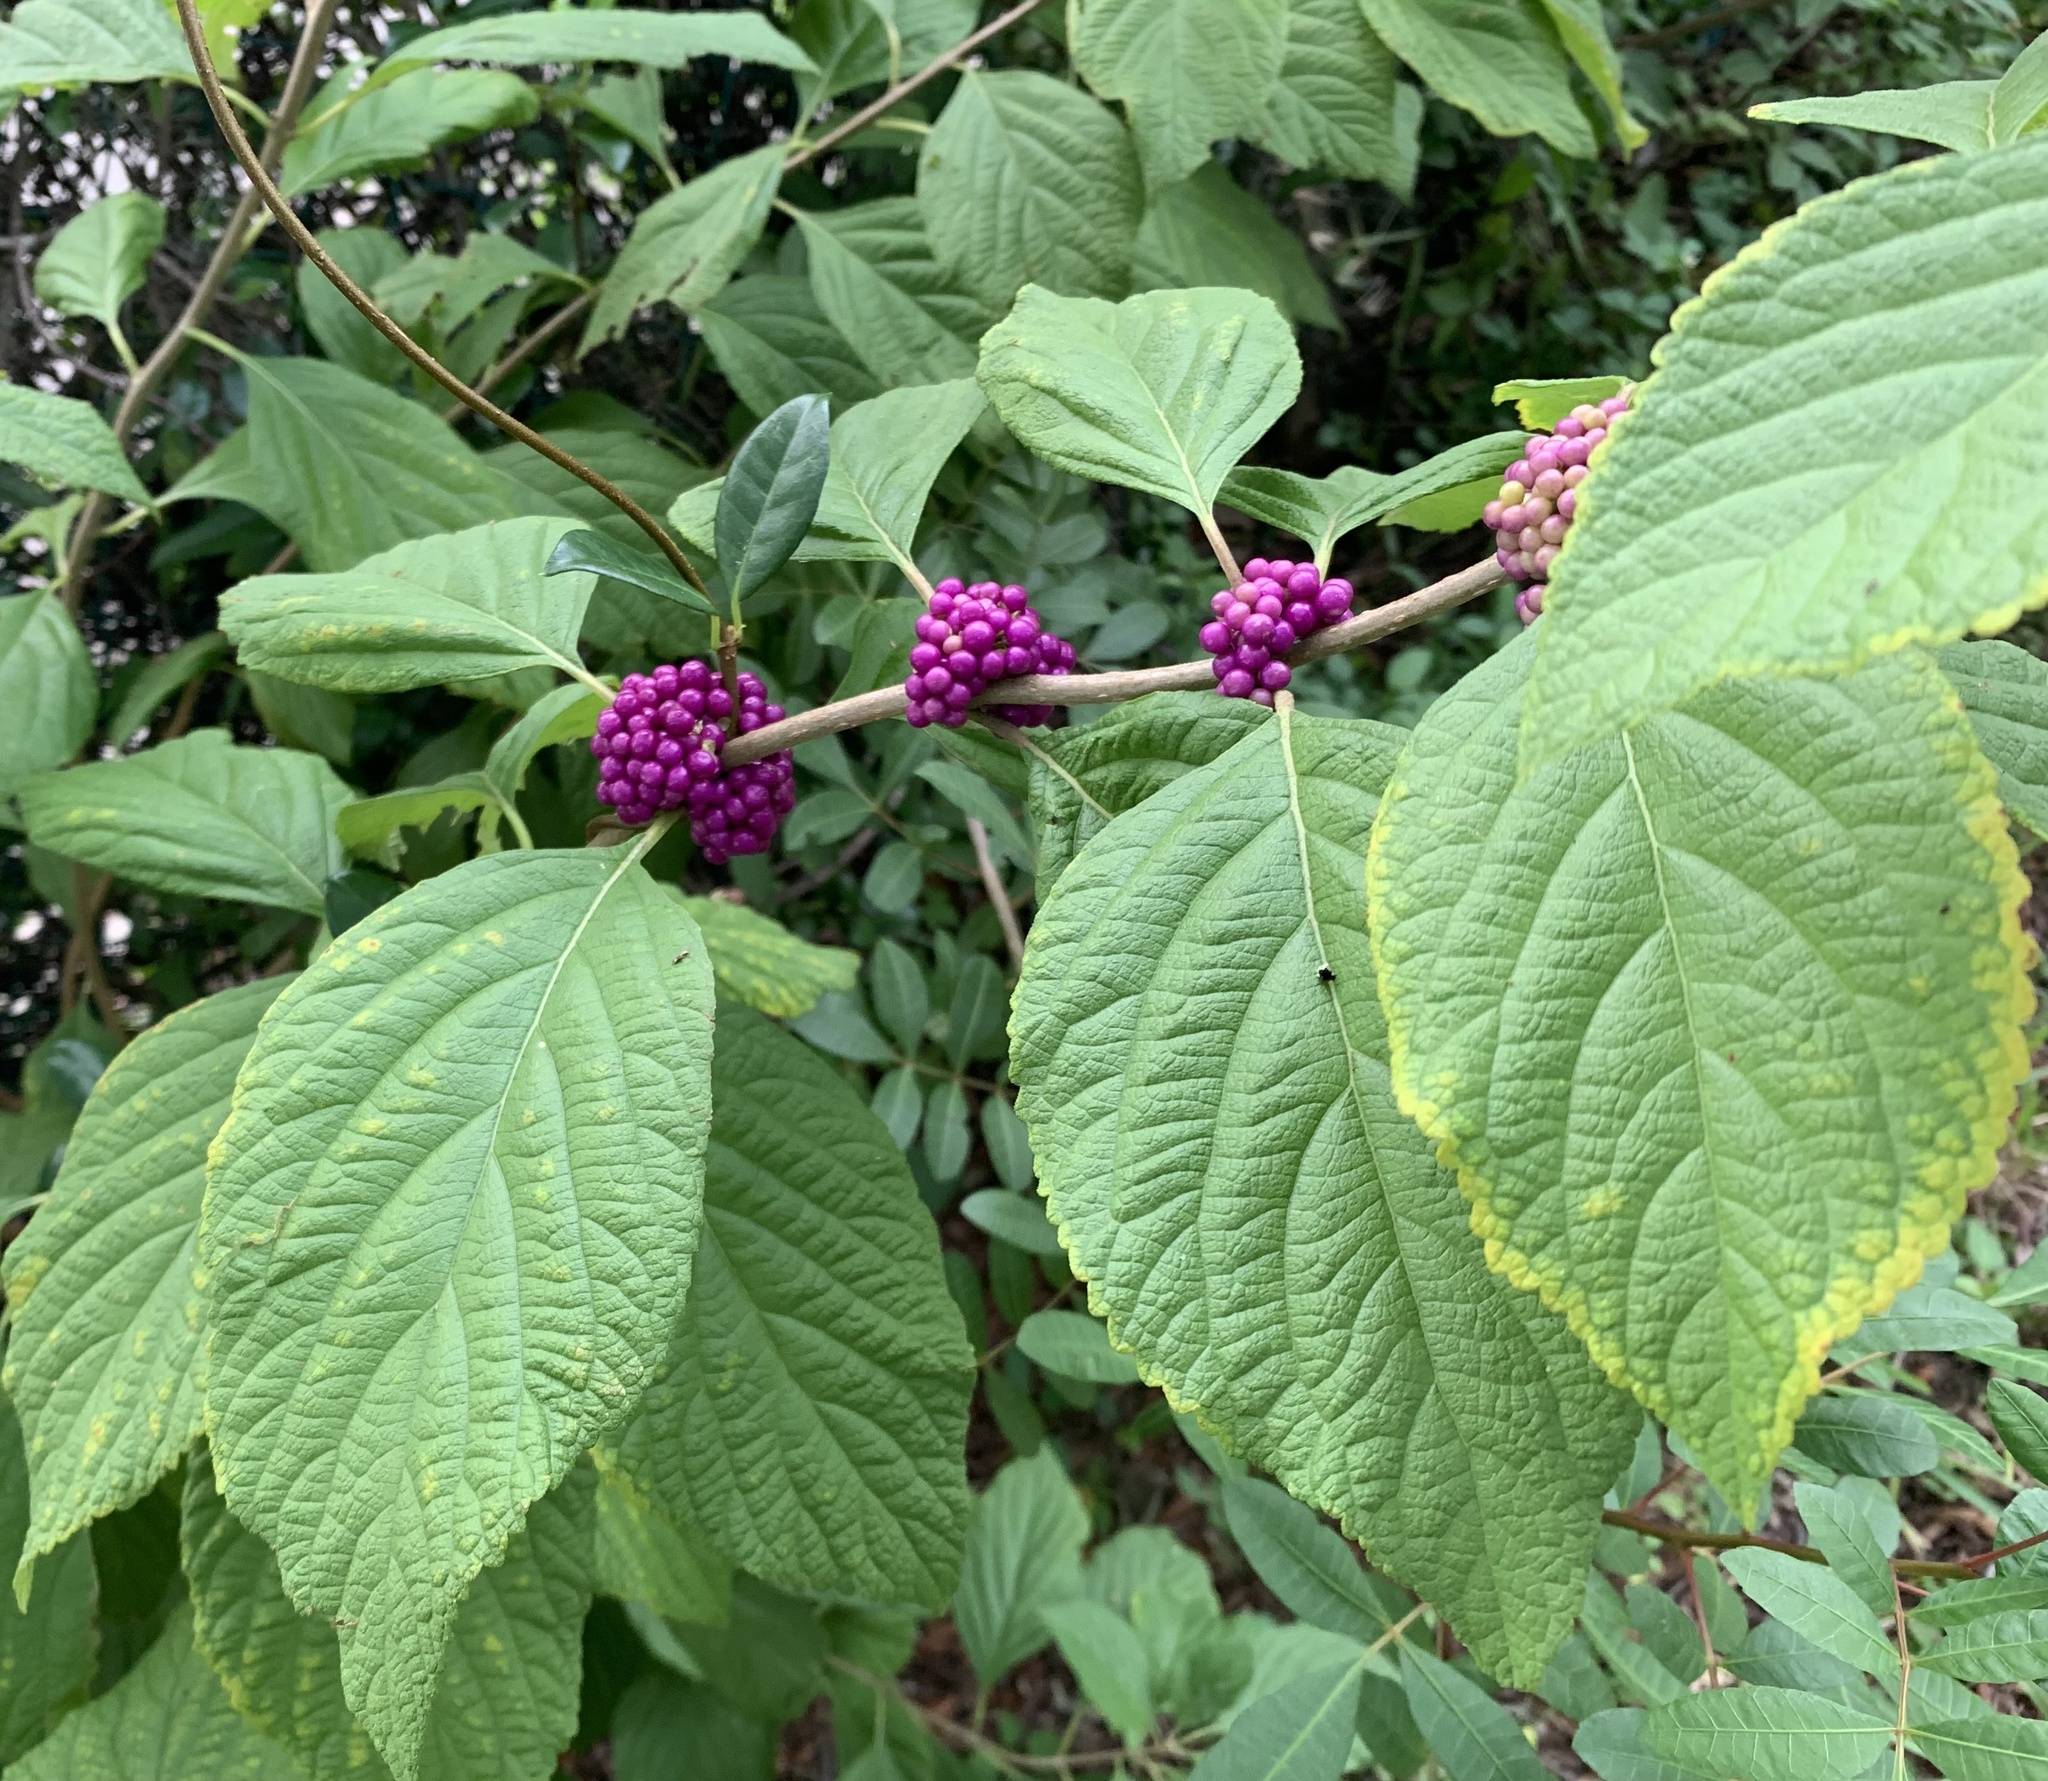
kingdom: Plantae
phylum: Tracheophyta
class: Magnoliopsida
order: Lamiales
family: Lamiaceae
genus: Callicarpa
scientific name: Callicarpa americana
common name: American beautyberry
